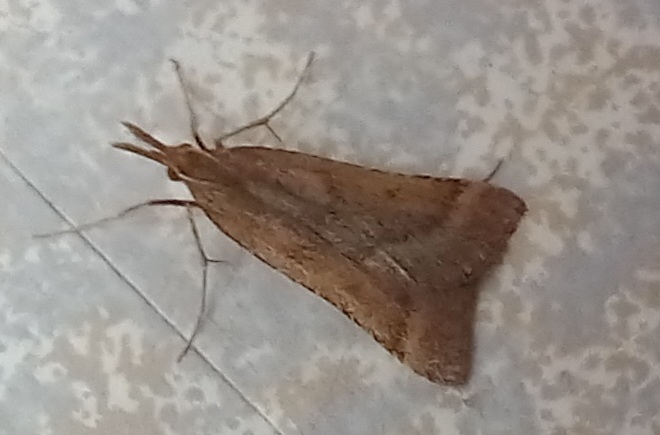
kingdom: Animalia
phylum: Arthropoda
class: Insecta
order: Lepidoptera
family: Pyralidae
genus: Synaphe
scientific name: Synaphe punctalis
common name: Long-legged tabby
